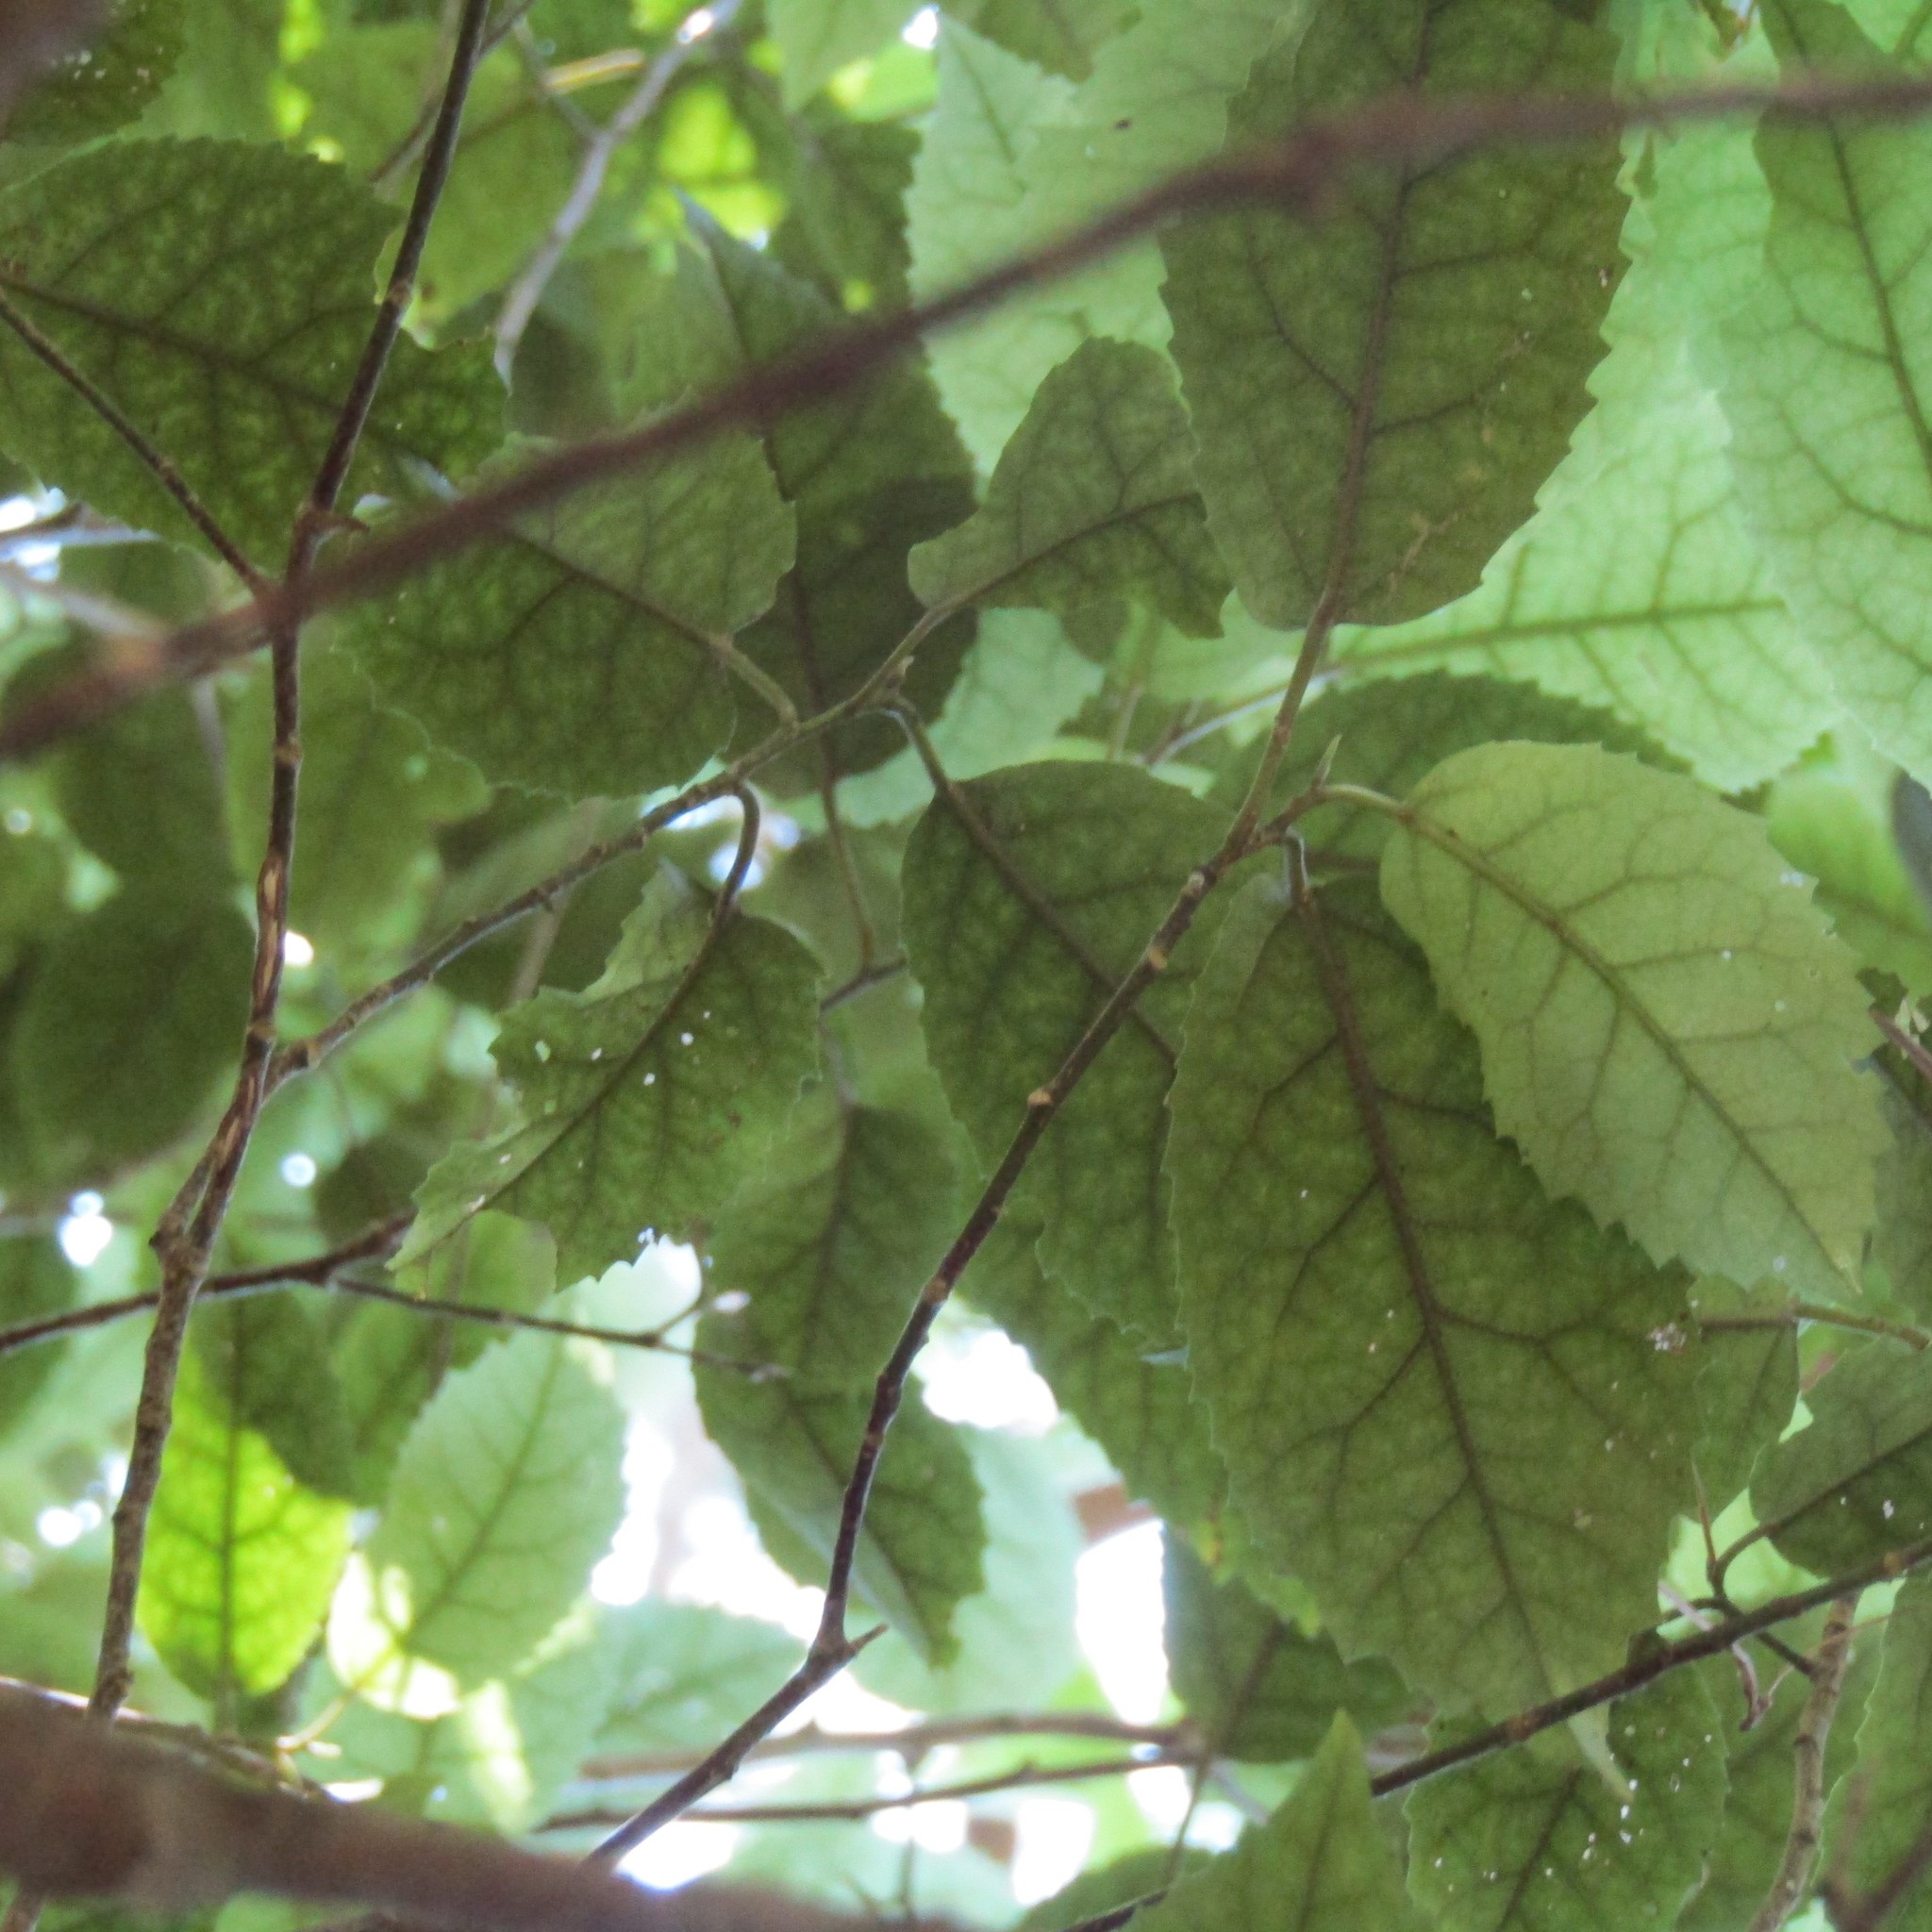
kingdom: Plantae
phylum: Tracheophyta
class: Magnoliopsida
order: Malvales
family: Malvaceae
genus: Hoheria
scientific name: Hoheria populnea
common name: Lacebark
